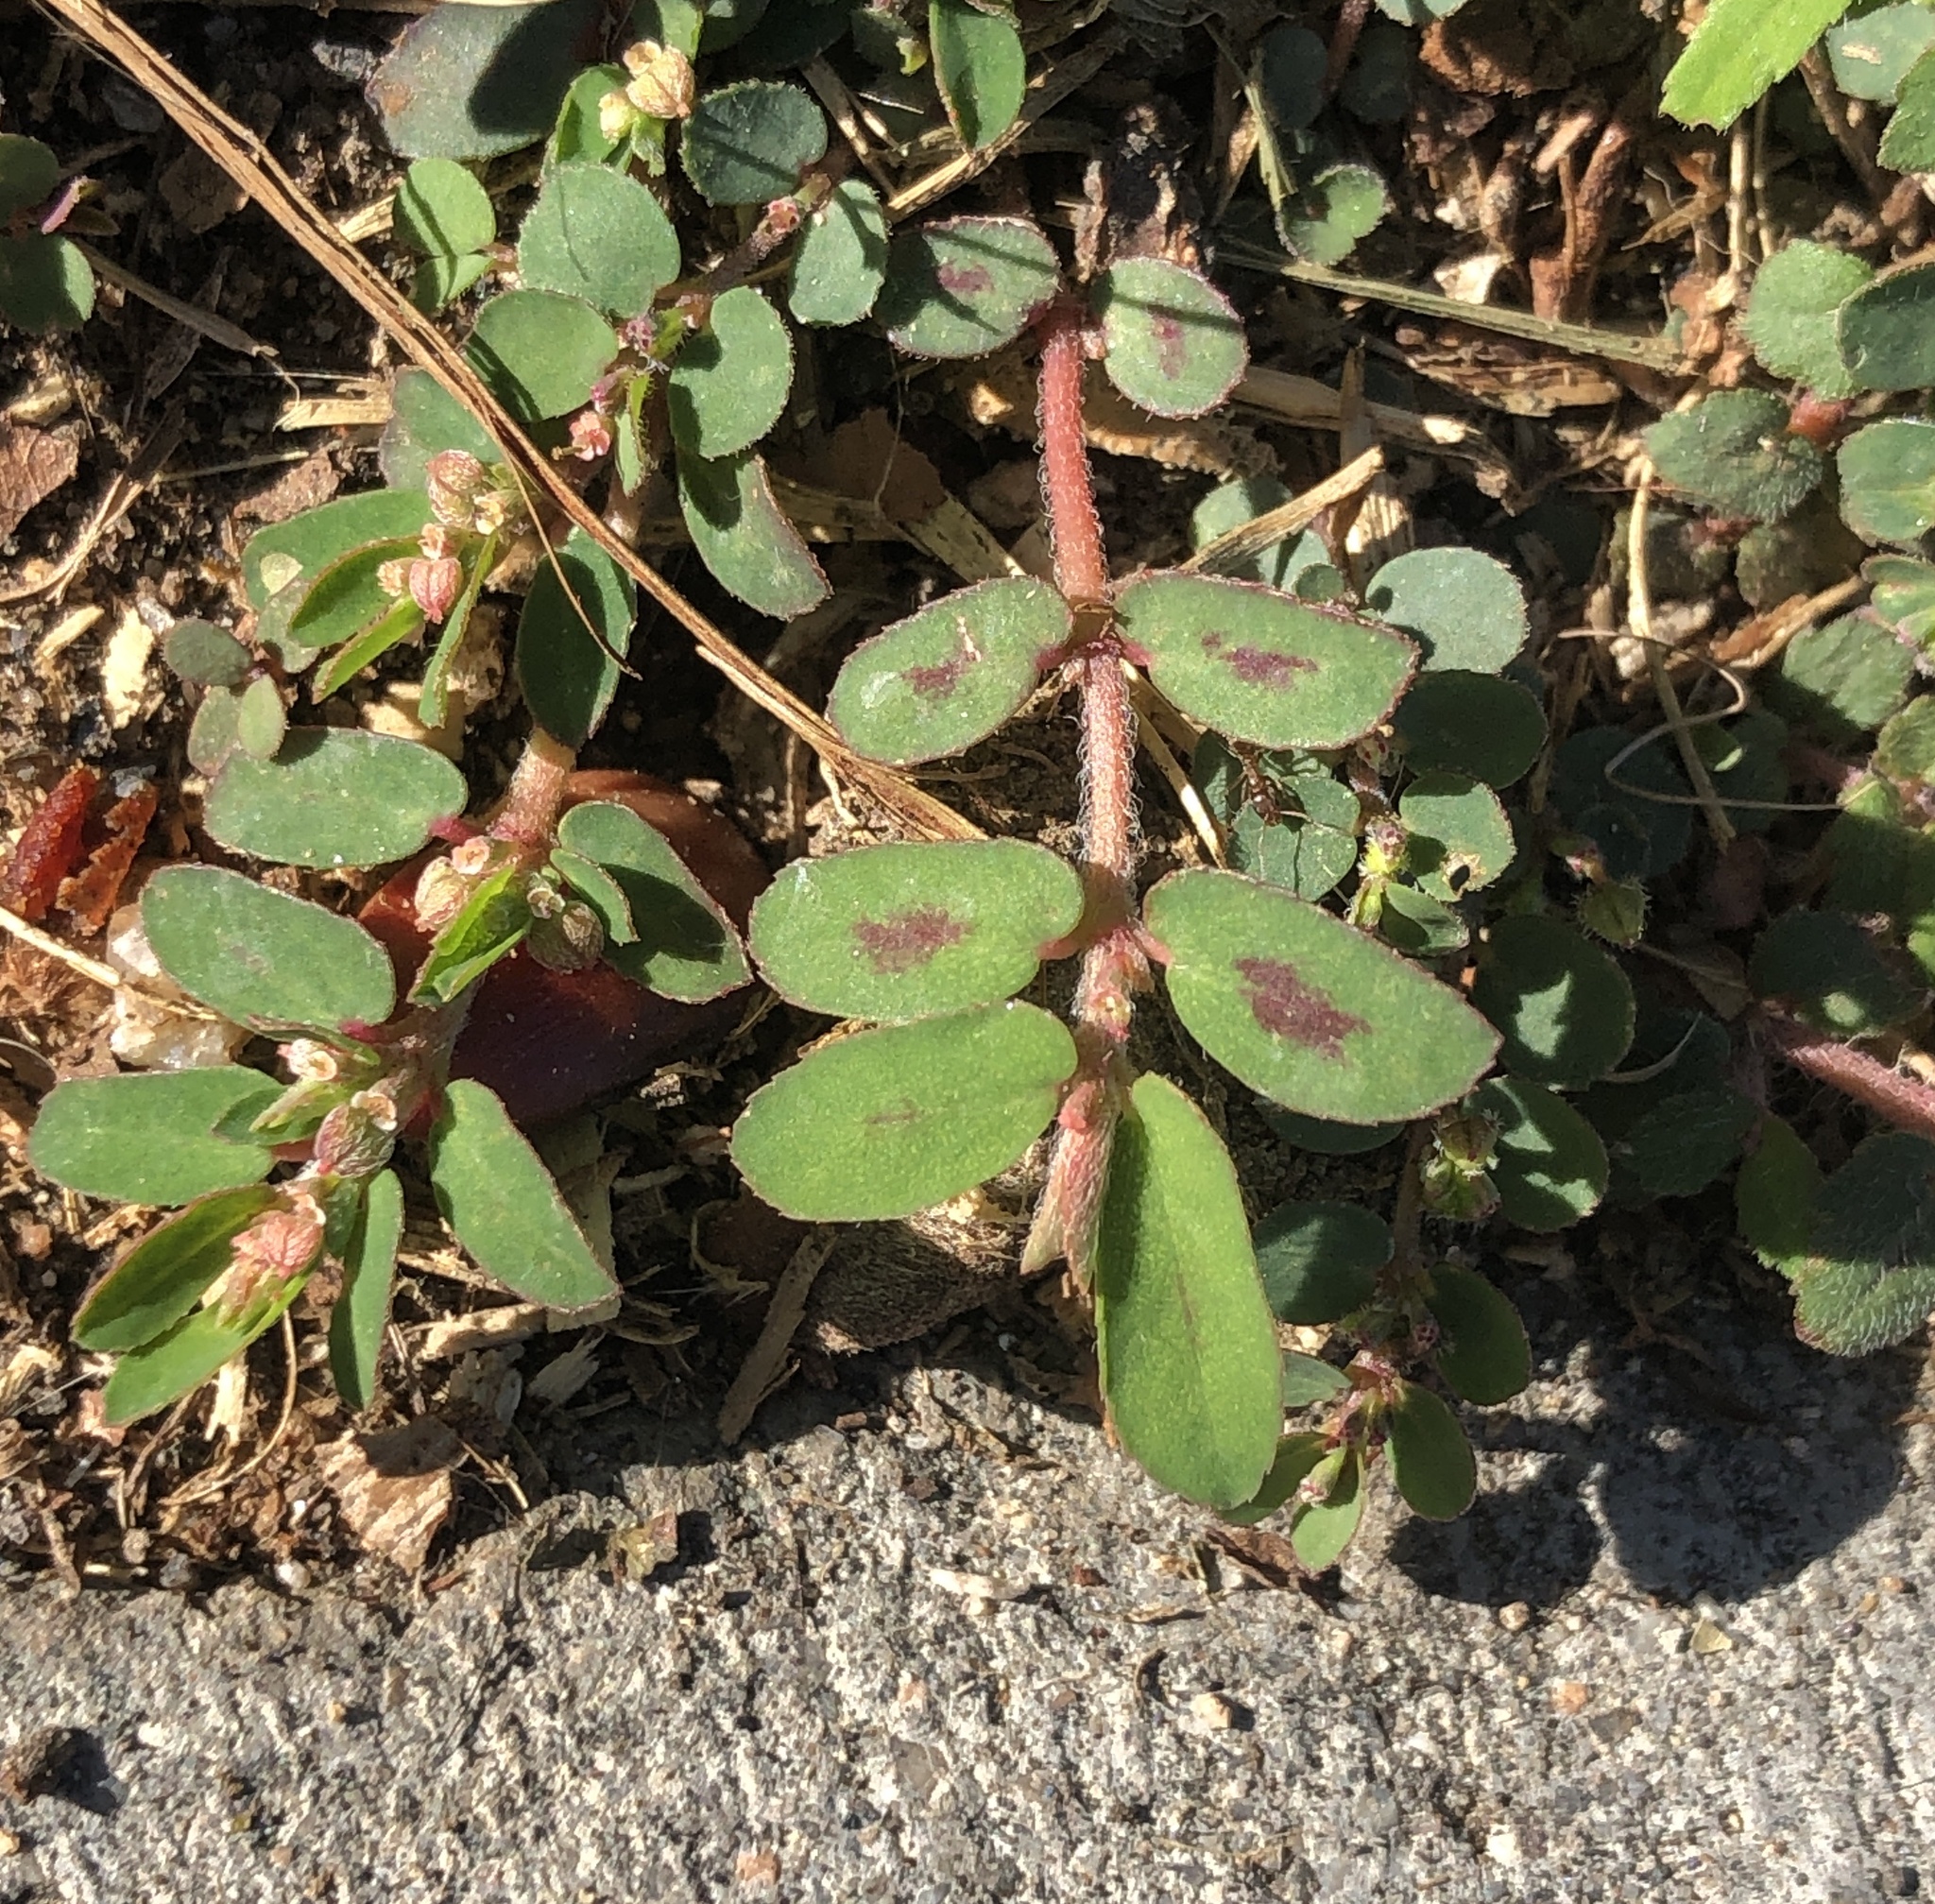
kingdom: Plantae
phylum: Tracheophyta
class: Magnoliopsida
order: Malpighiales
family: Euphorbiaceae
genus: Euphorbia
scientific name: Euphorbia maculata
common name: Spotted spurge
